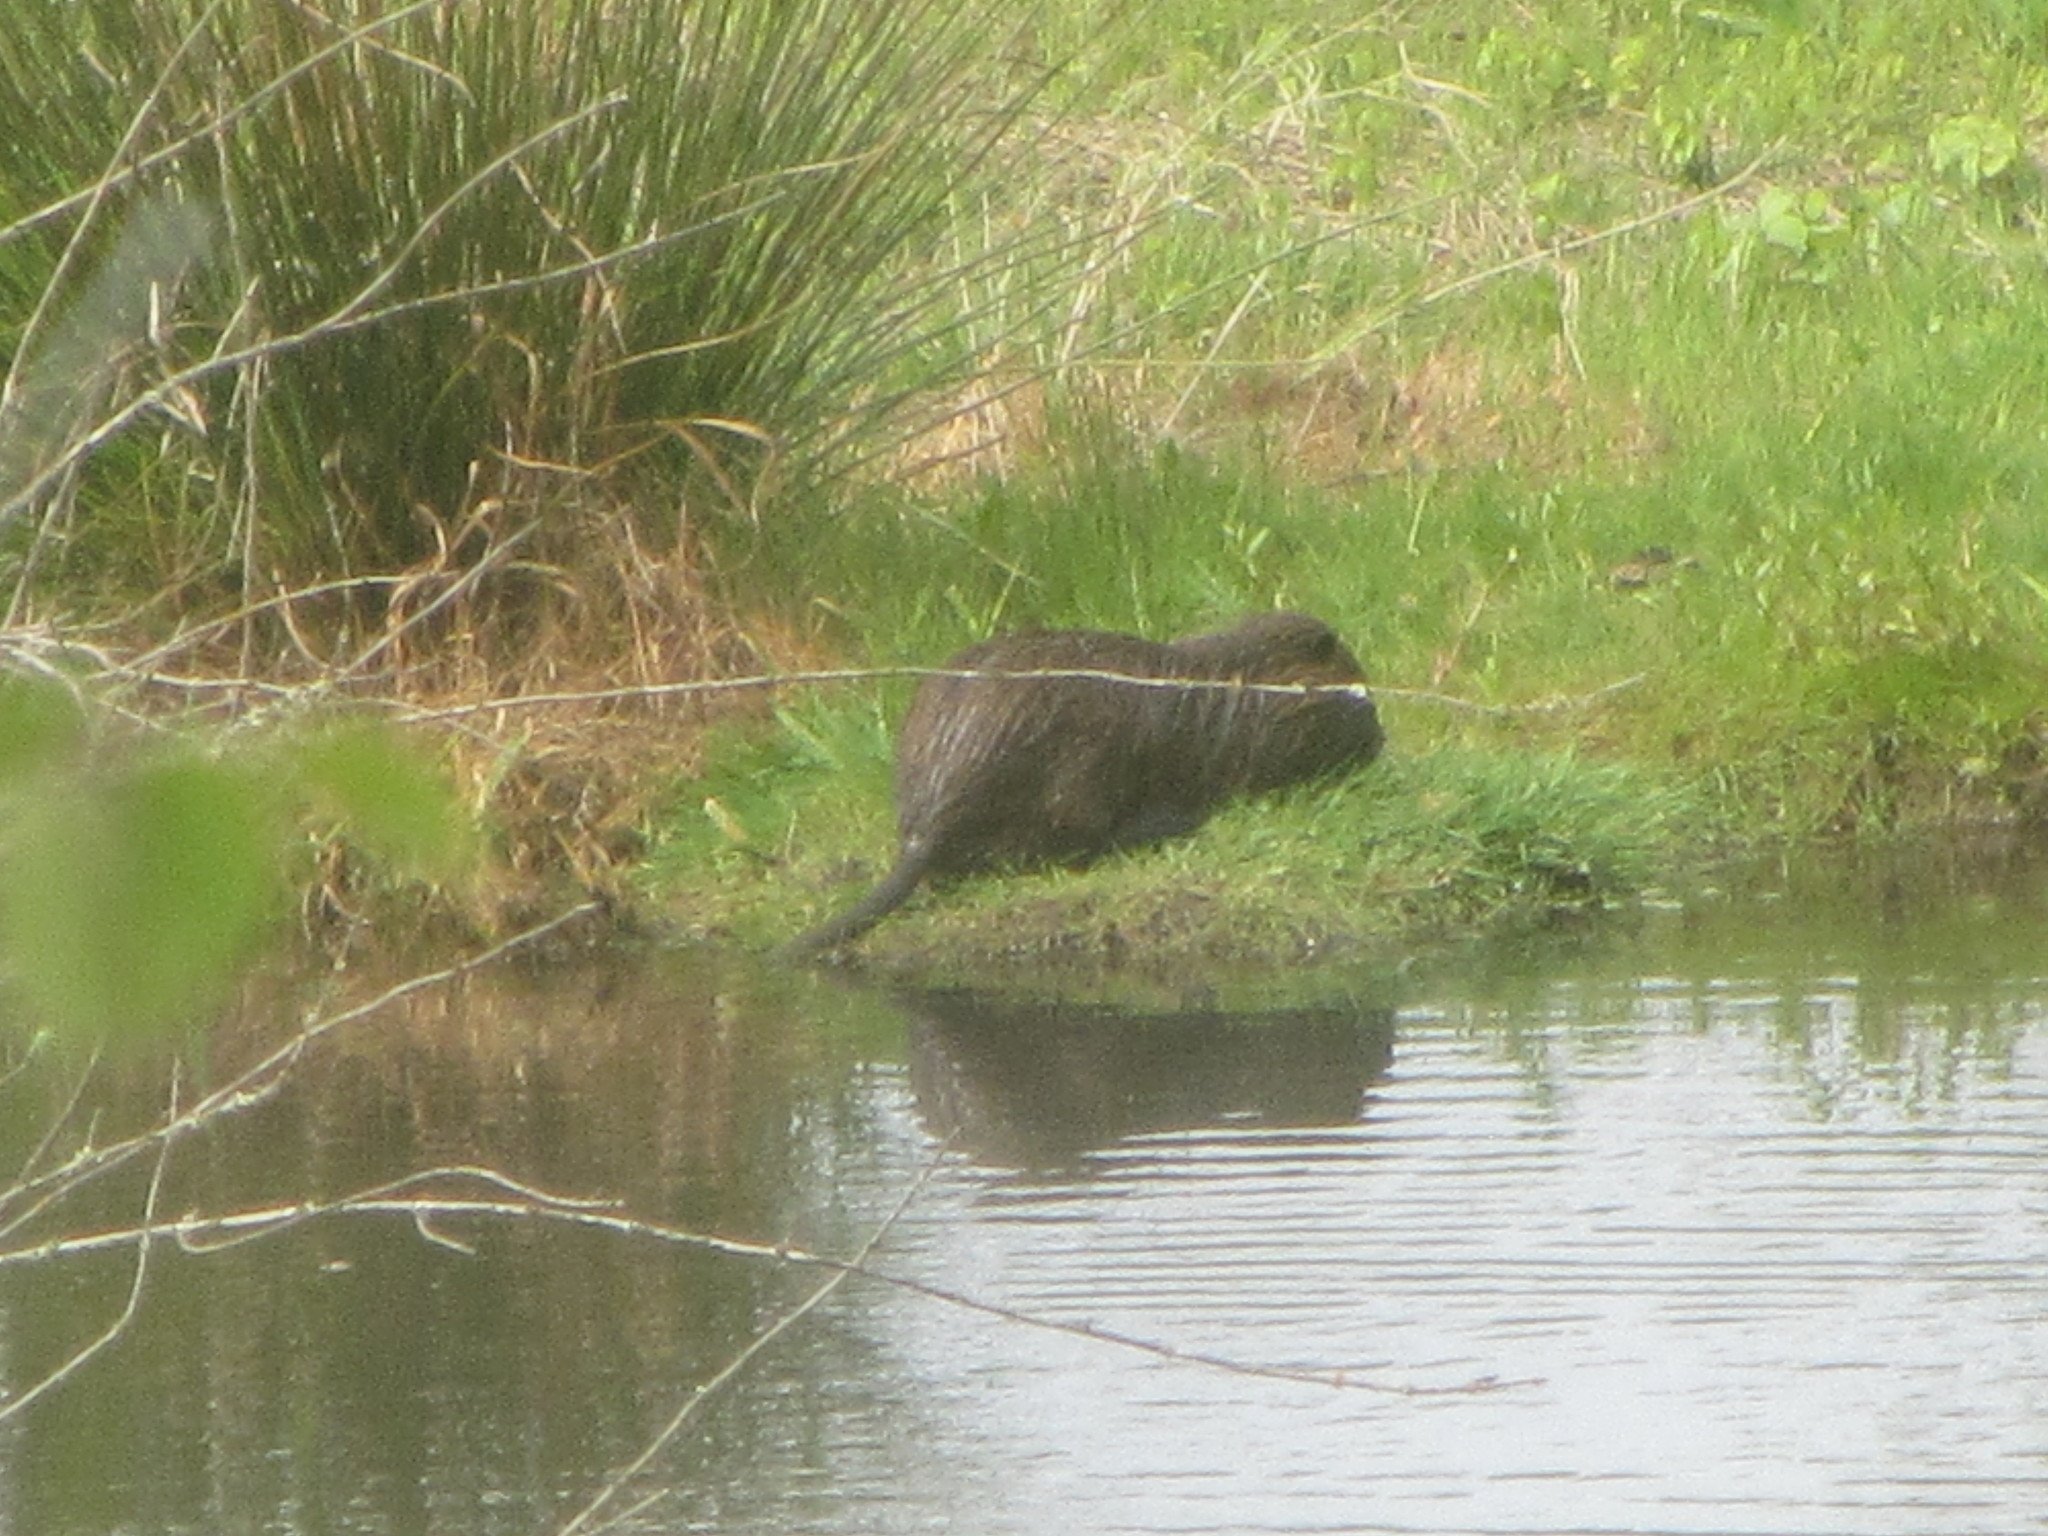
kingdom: Animalia
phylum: Chordata
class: Mammalia
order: Rodentia
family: Myocastoridae
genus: Myocastor
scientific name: Myocastor coypus
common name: Coypu
